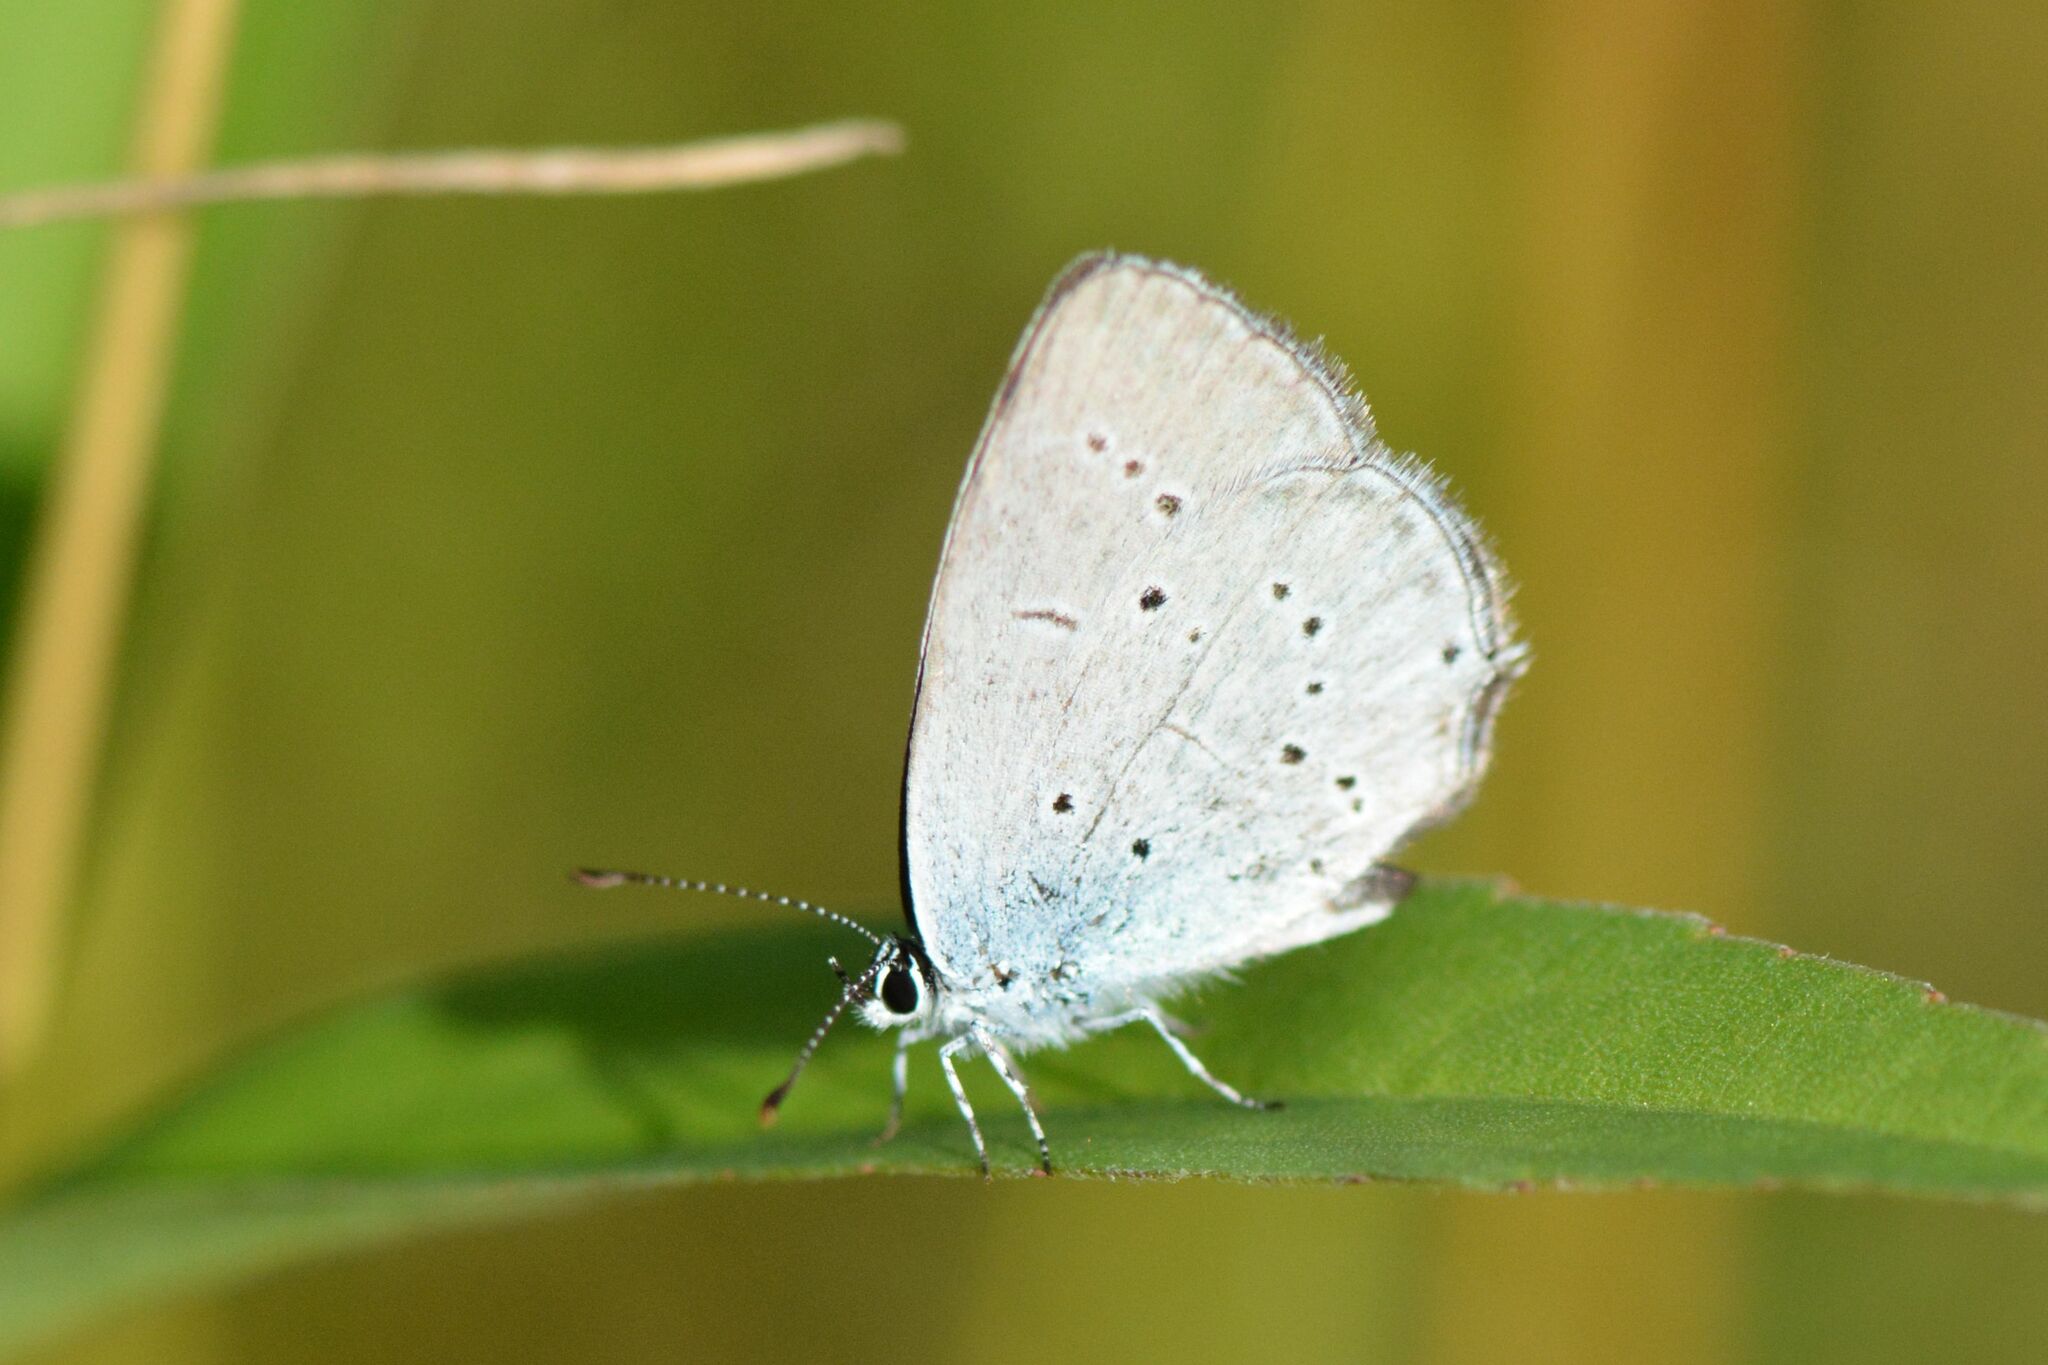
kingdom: Animalia
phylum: Arthropoda
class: Insecta
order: Lepidoptera
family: Lycaenidae
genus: Elkalyce
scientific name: Elkalyce alcetas
